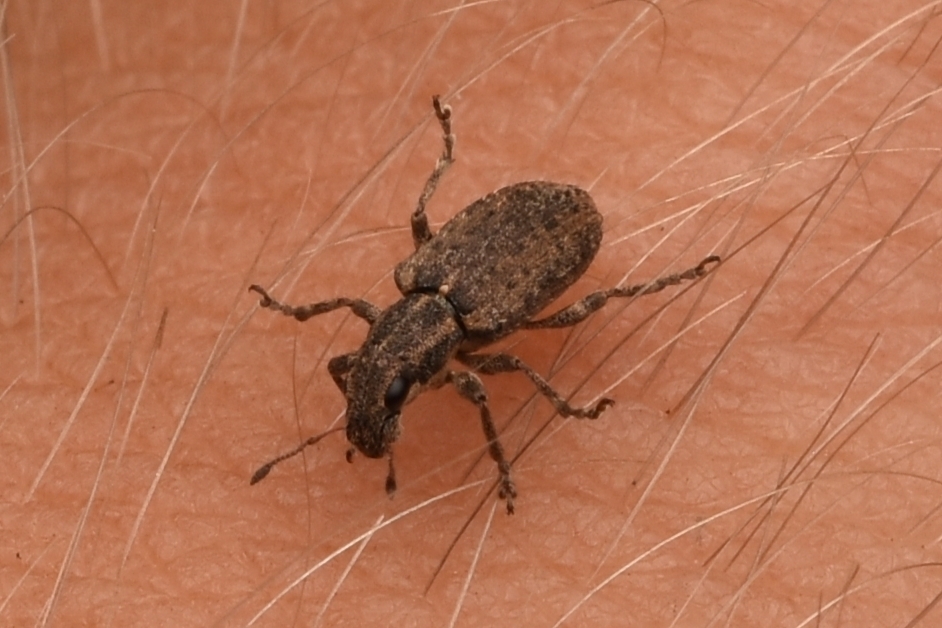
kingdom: Animalia
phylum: Arthropoda
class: Insecta
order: Coleoptera
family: Curculionidae
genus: Sitones
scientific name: Sitones californius
